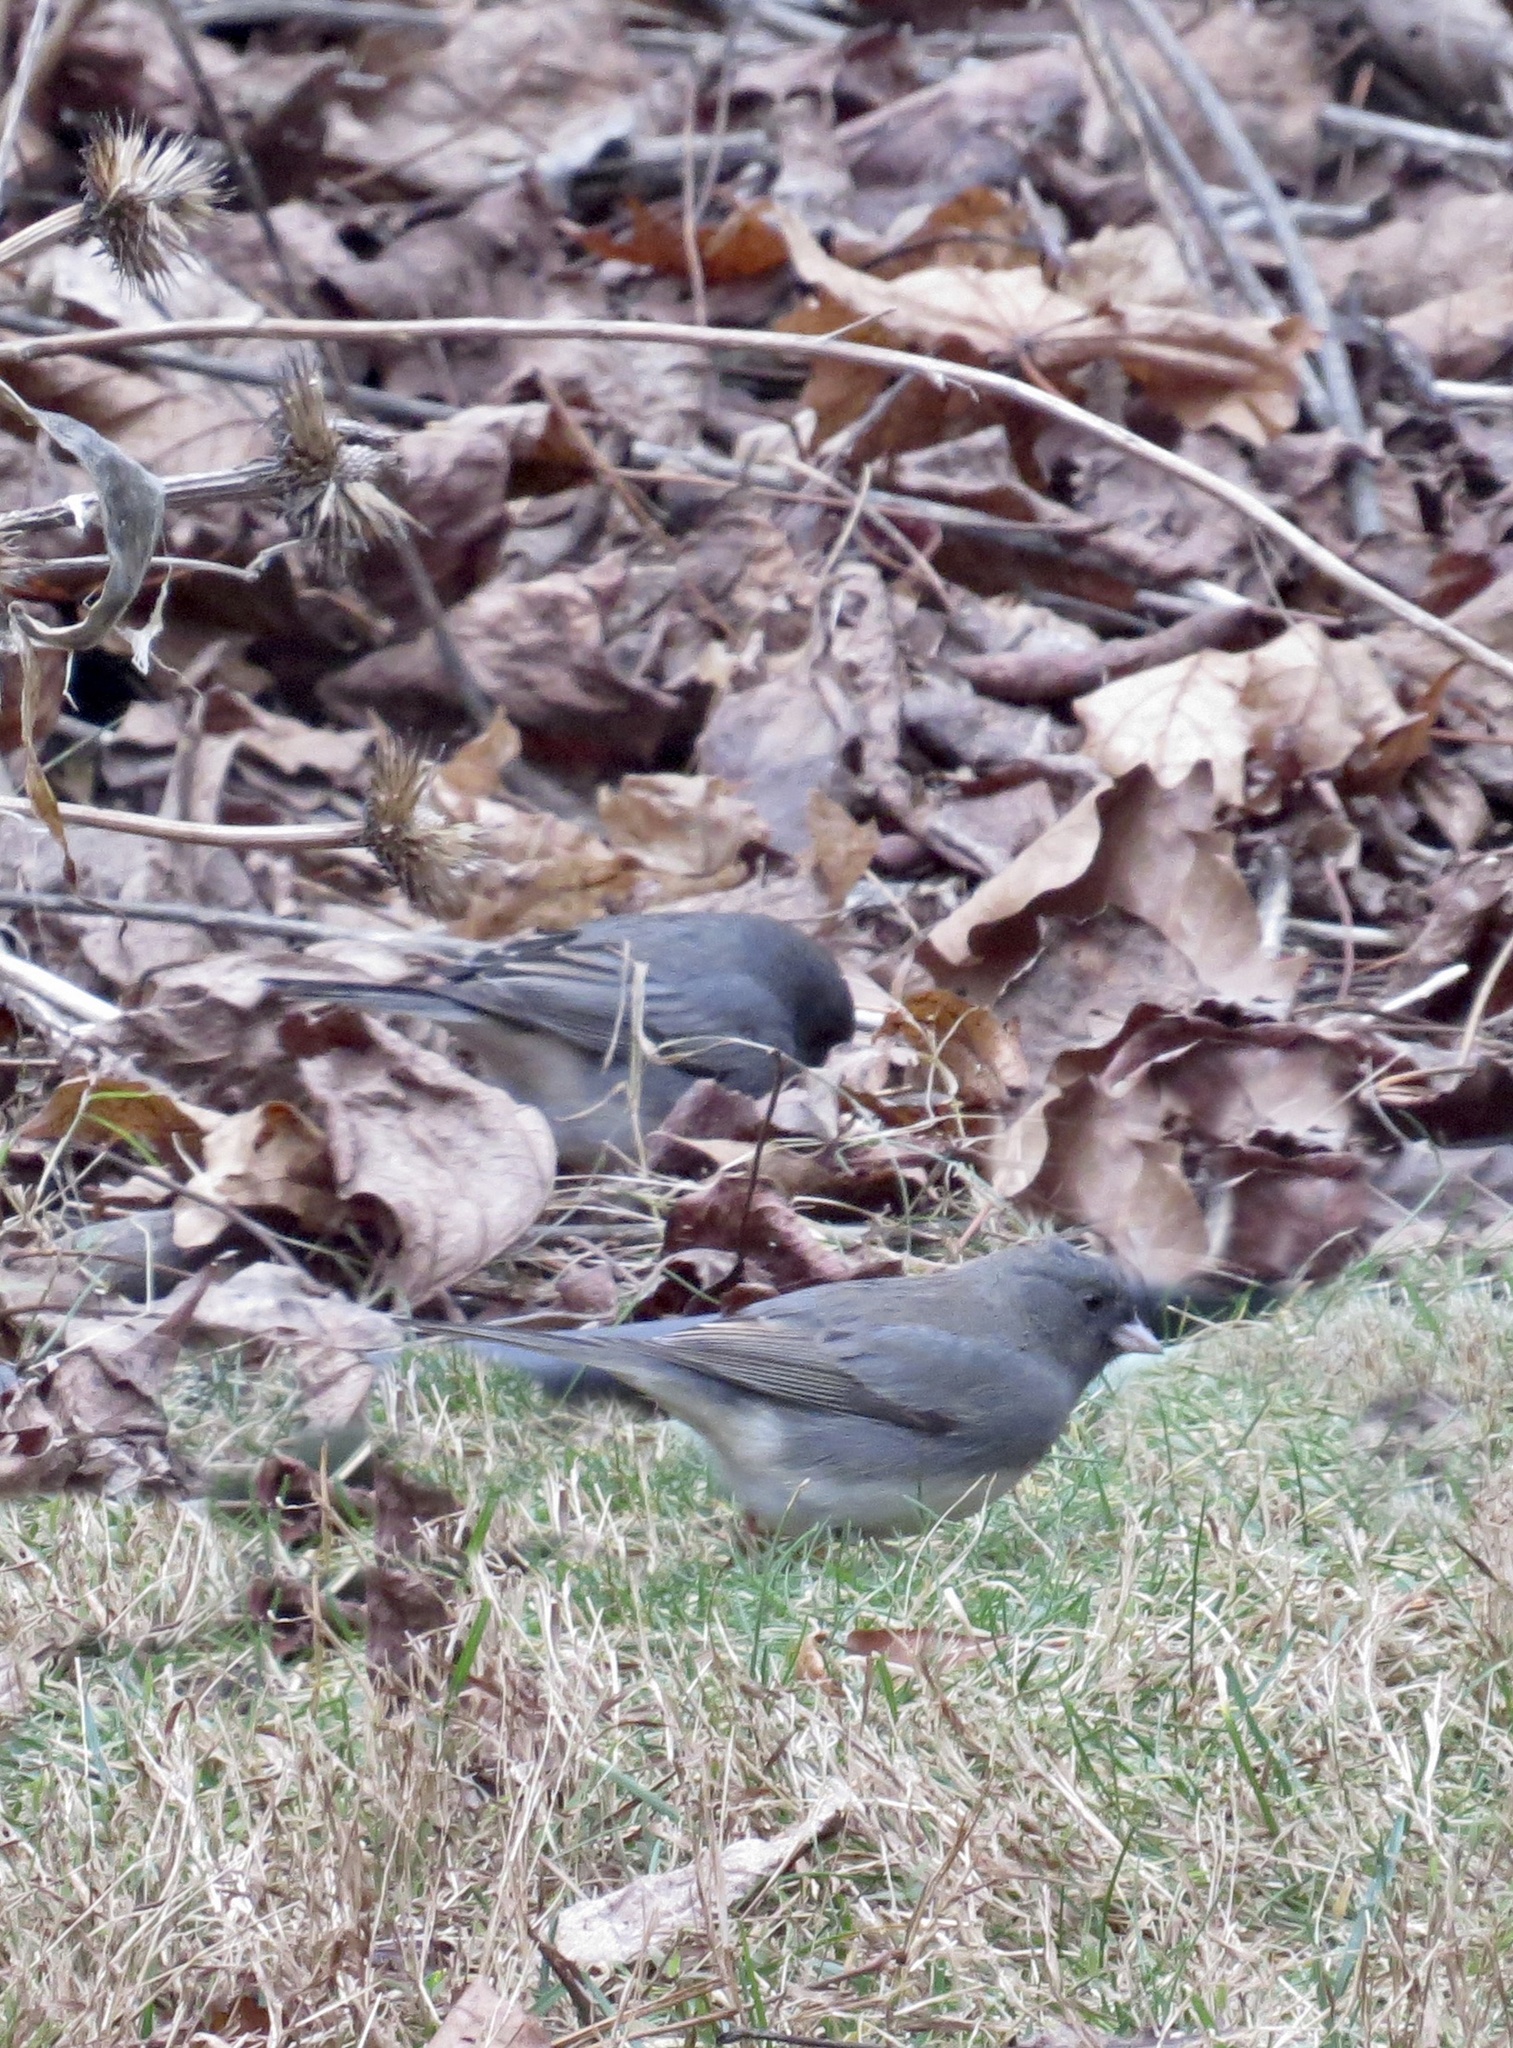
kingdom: Animalia
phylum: Chordata
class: Aves
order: Passeriformes
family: Passerellidae
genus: Junco
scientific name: Junco hyemalis
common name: Dark-eyed junco
